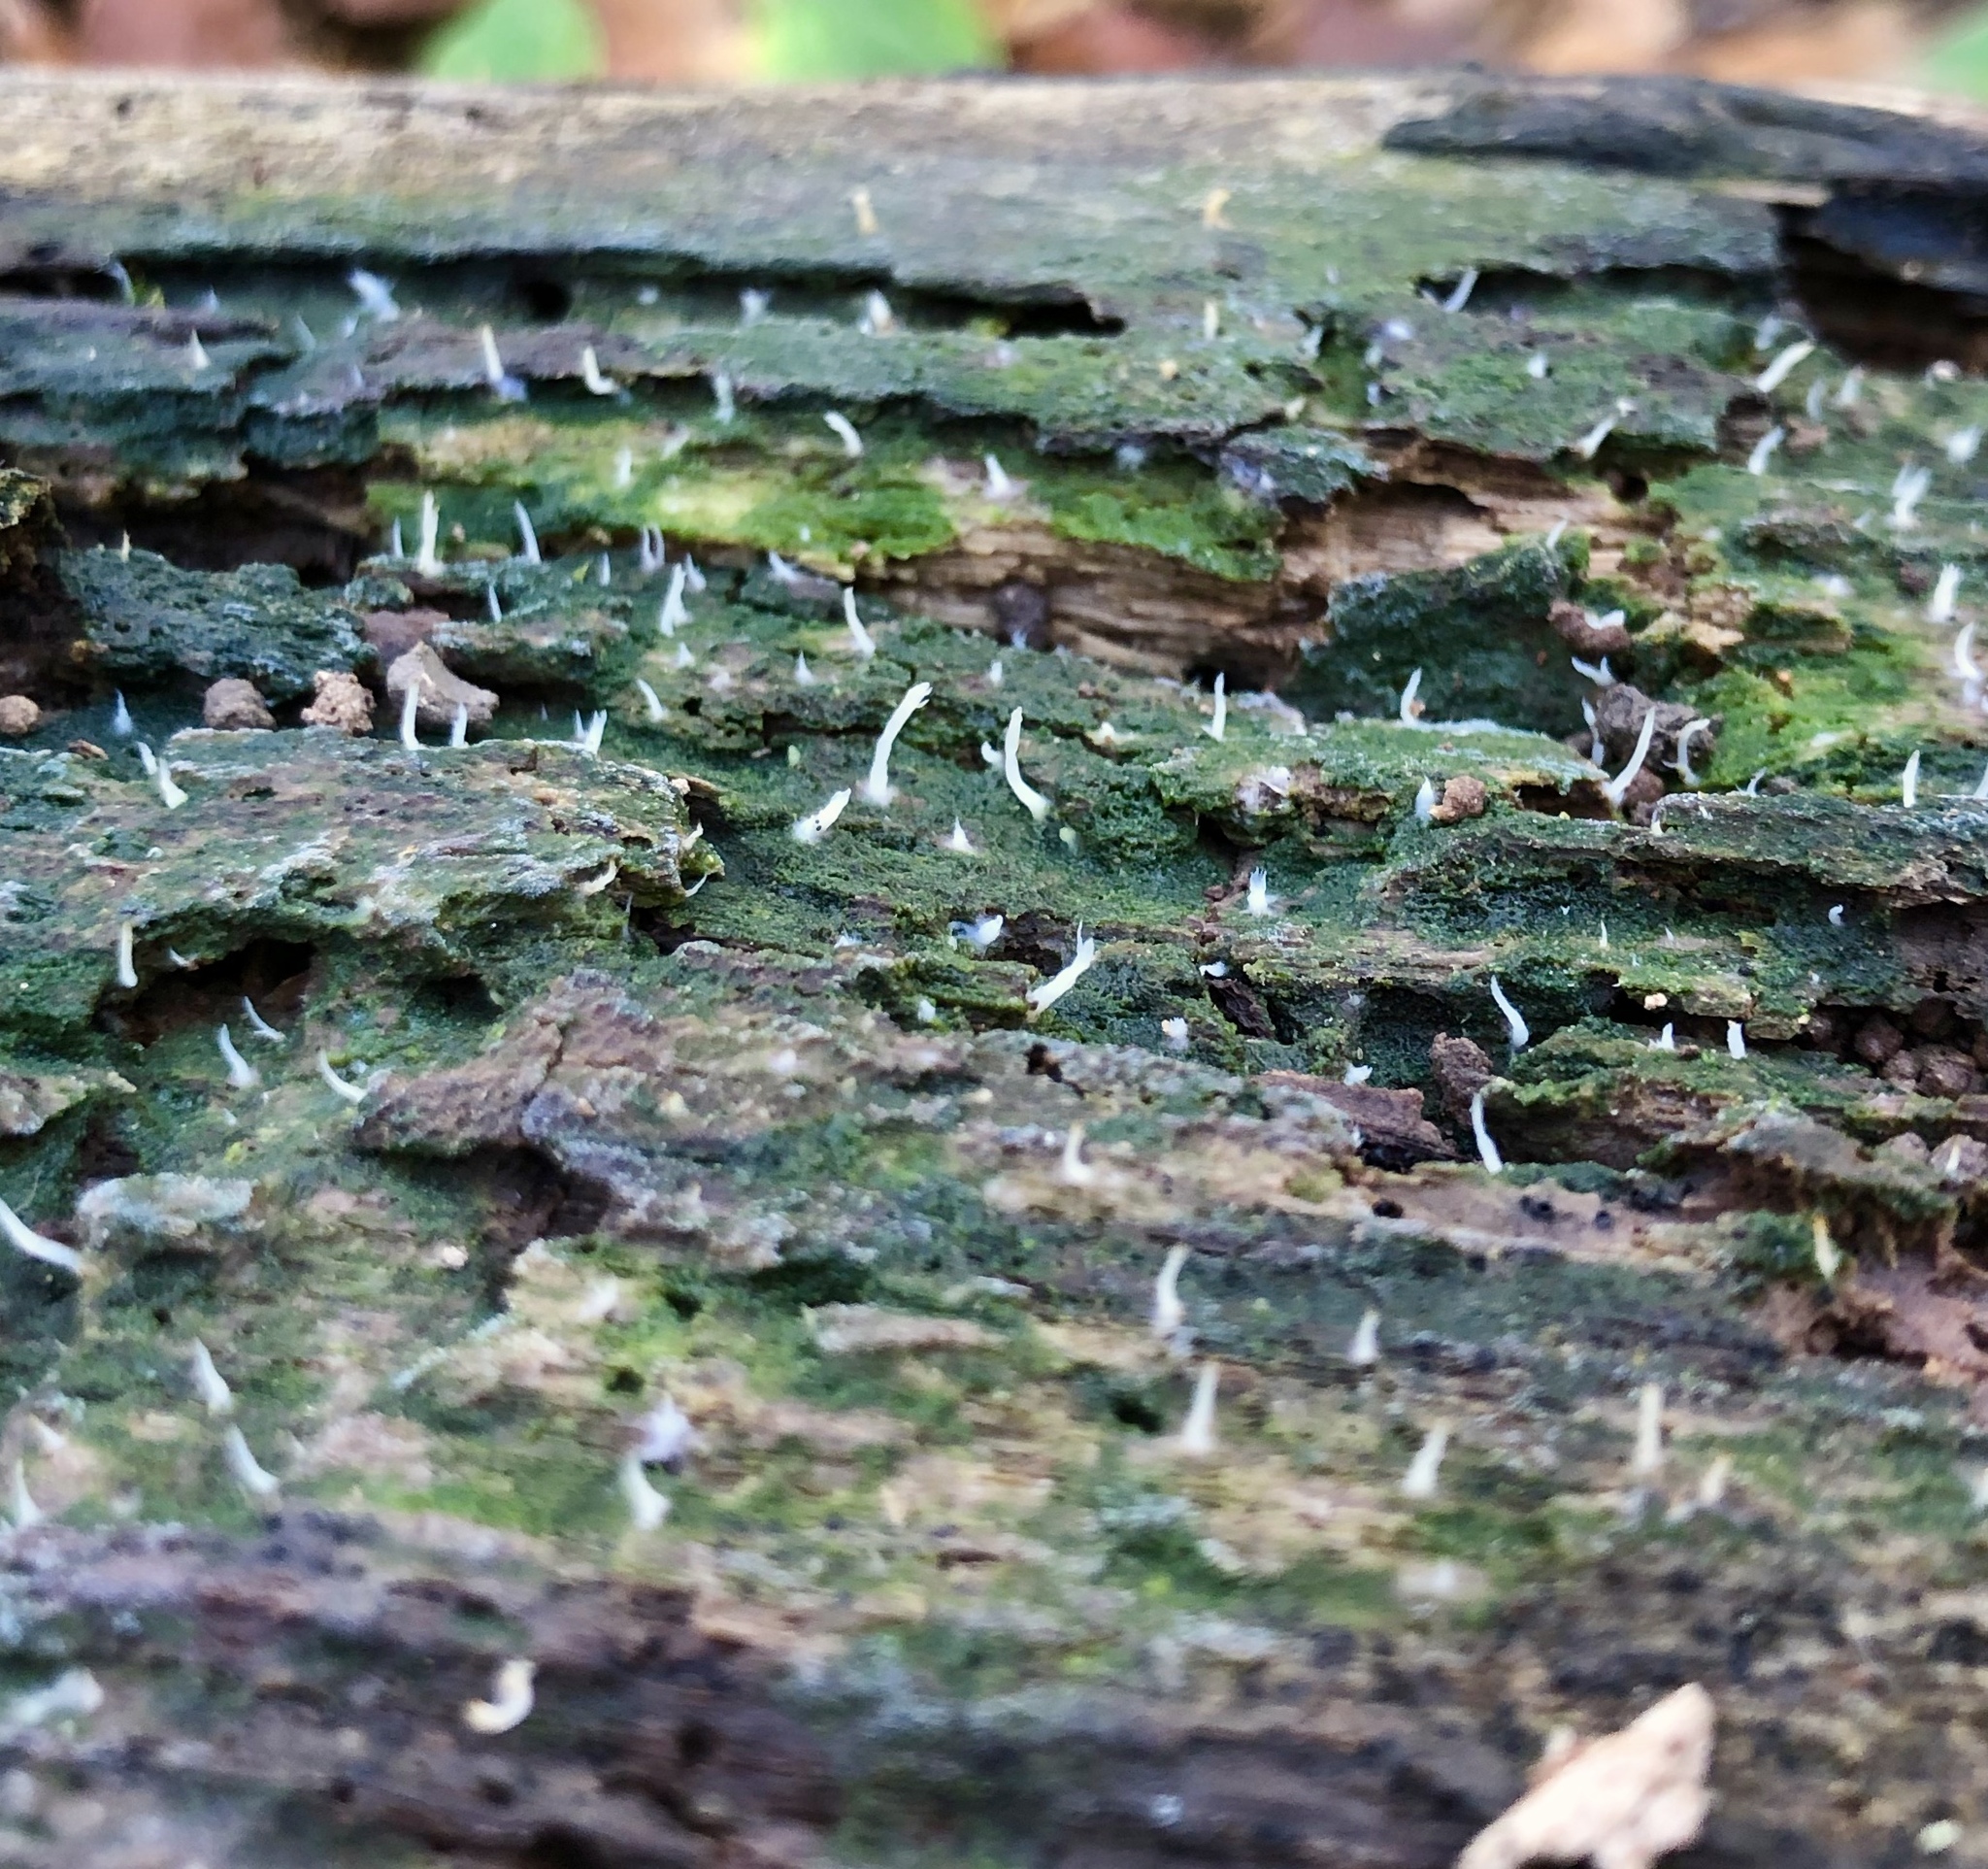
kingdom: Fungi
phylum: Basidiomycota
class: Agaricomycetes
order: Cantharellales
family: Hydnaceae
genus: Multiclavula
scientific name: Multiclavula mucida
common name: White green-algae coral
